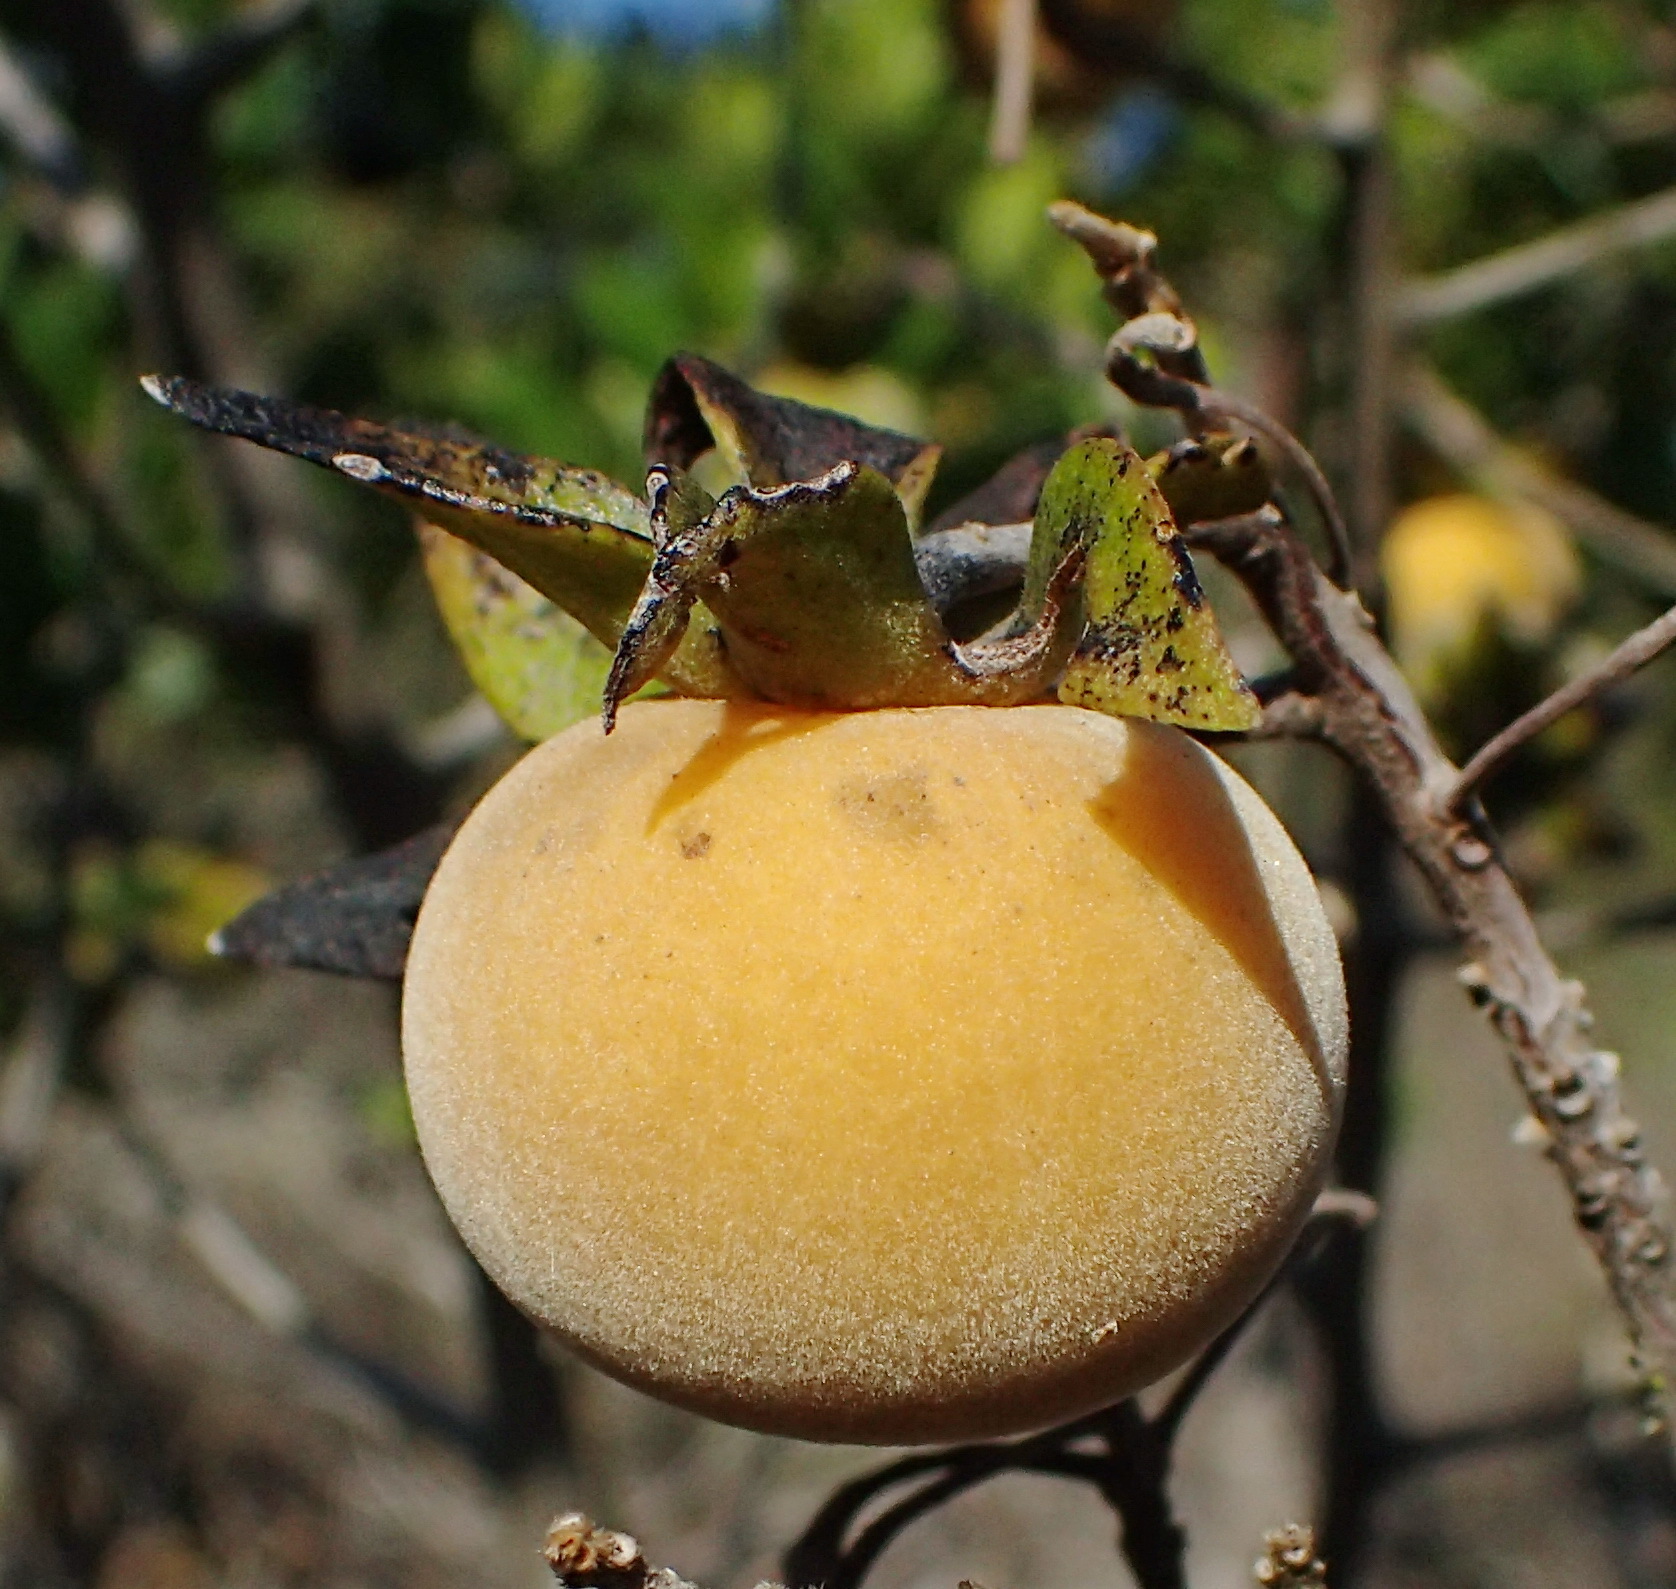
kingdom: Plantae
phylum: Tracheophyta
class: Magnoliopsida
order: Ericales
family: Ebenaceae
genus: Diospyros
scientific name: Diospyros dichrophylla
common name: Common star-apple
